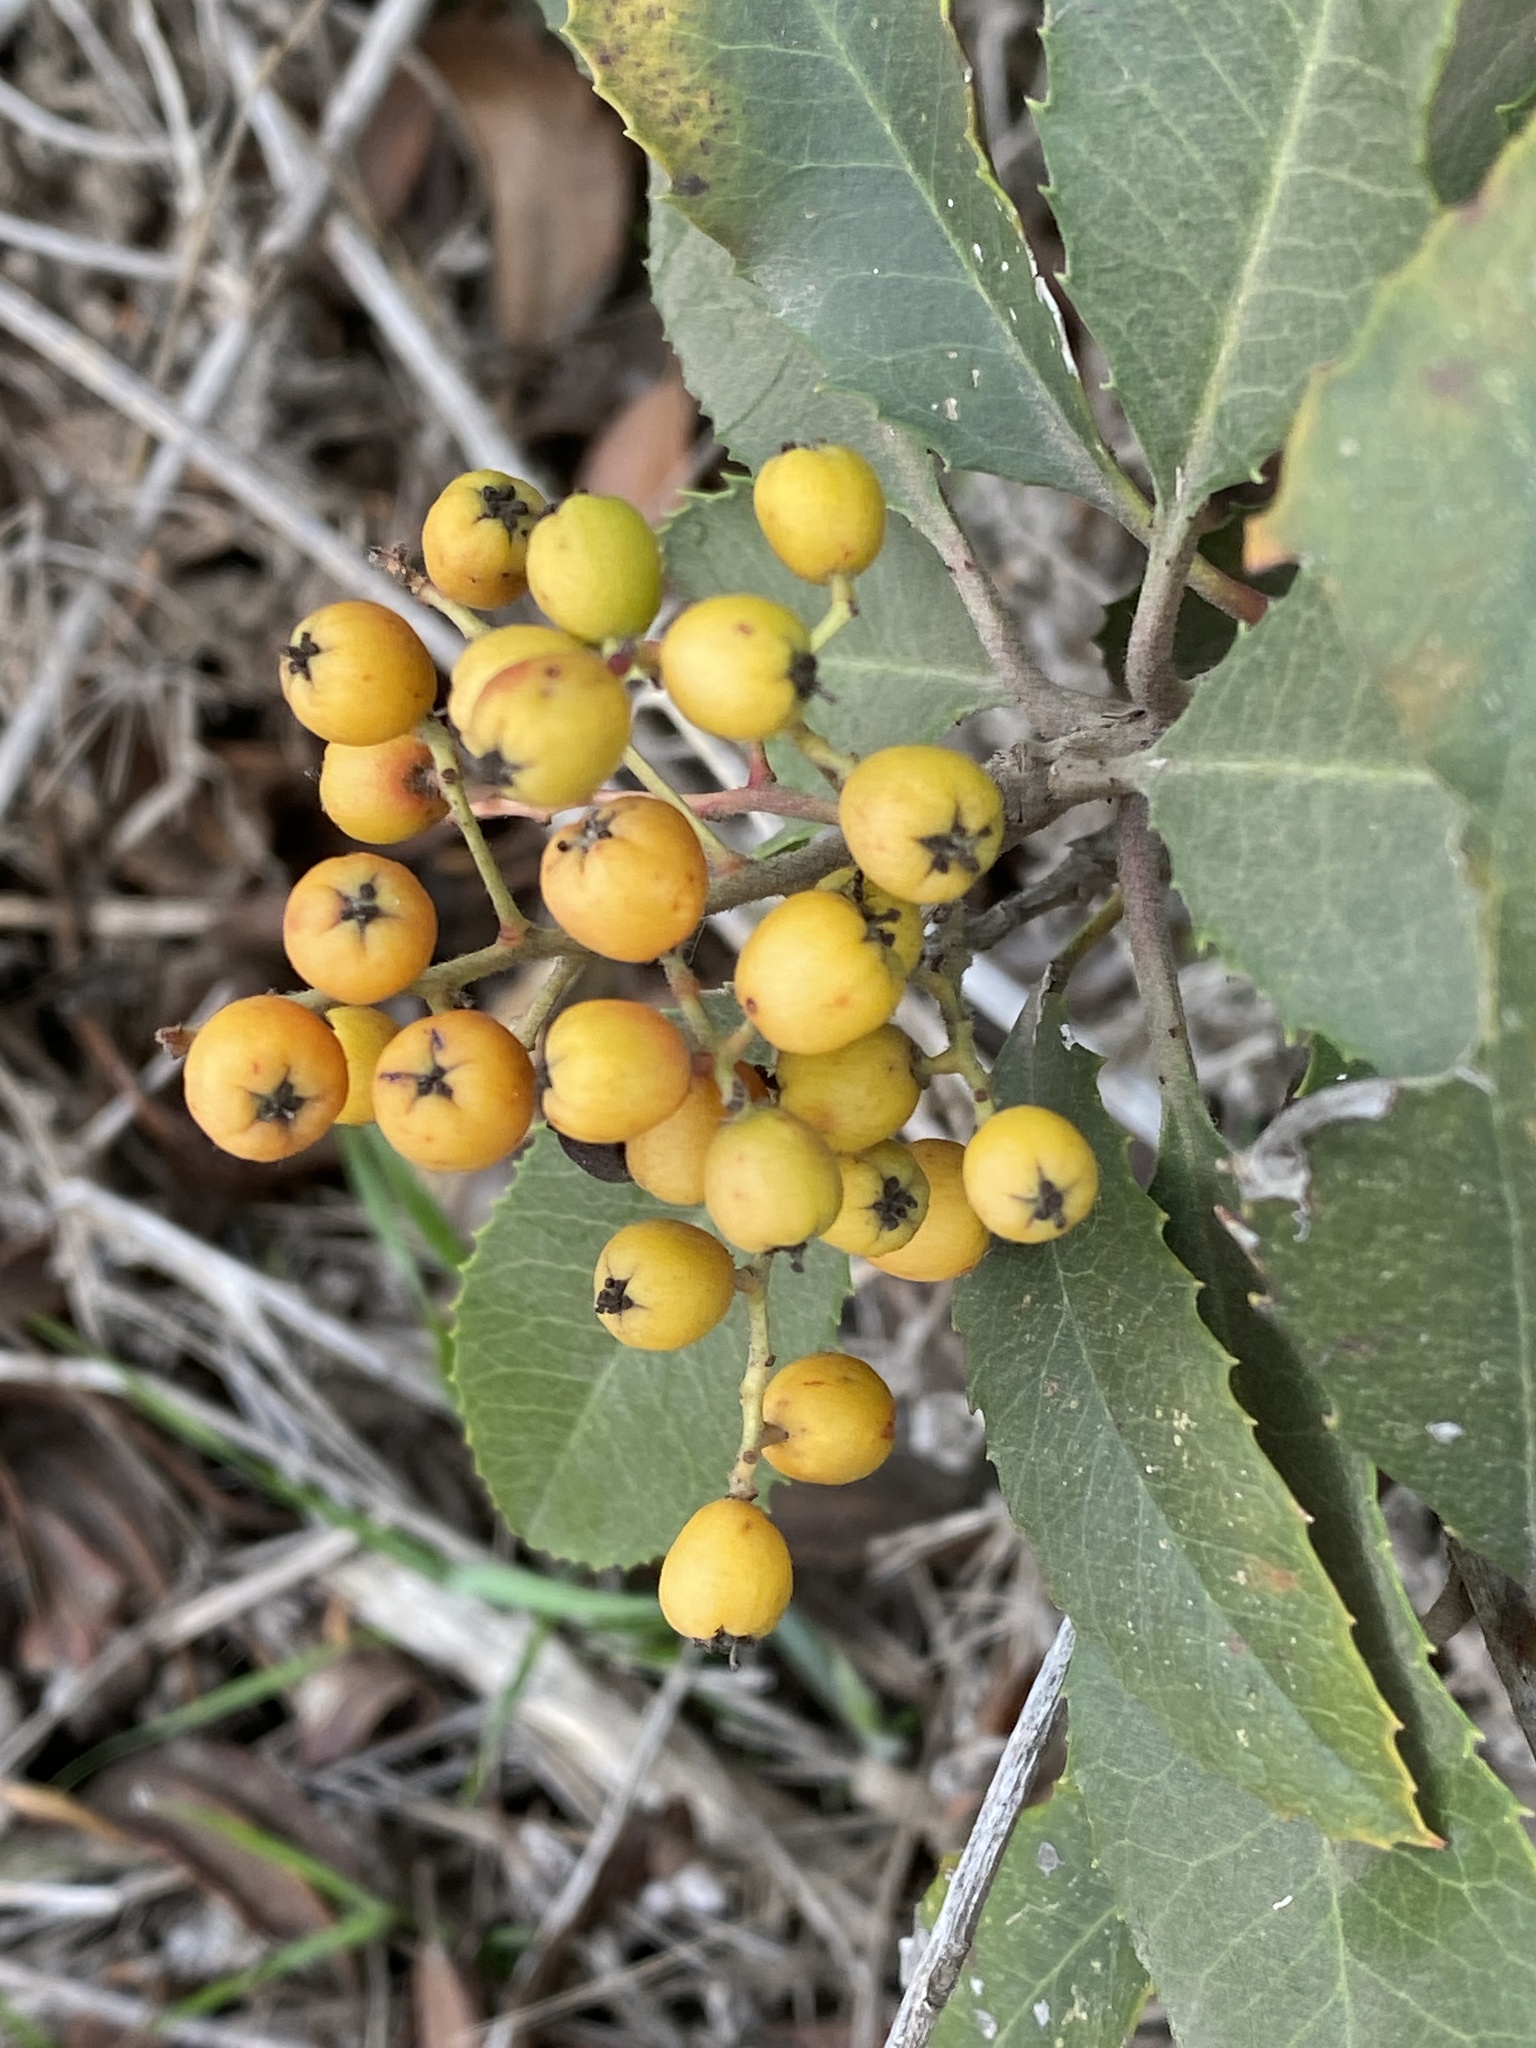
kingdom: Plantae
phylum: Tracheophyta
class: Magnoliopsida
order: Rosales
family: Rosaceae
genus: Heteromeles
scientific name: Heteromeles arbutifolia
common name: California-holly
